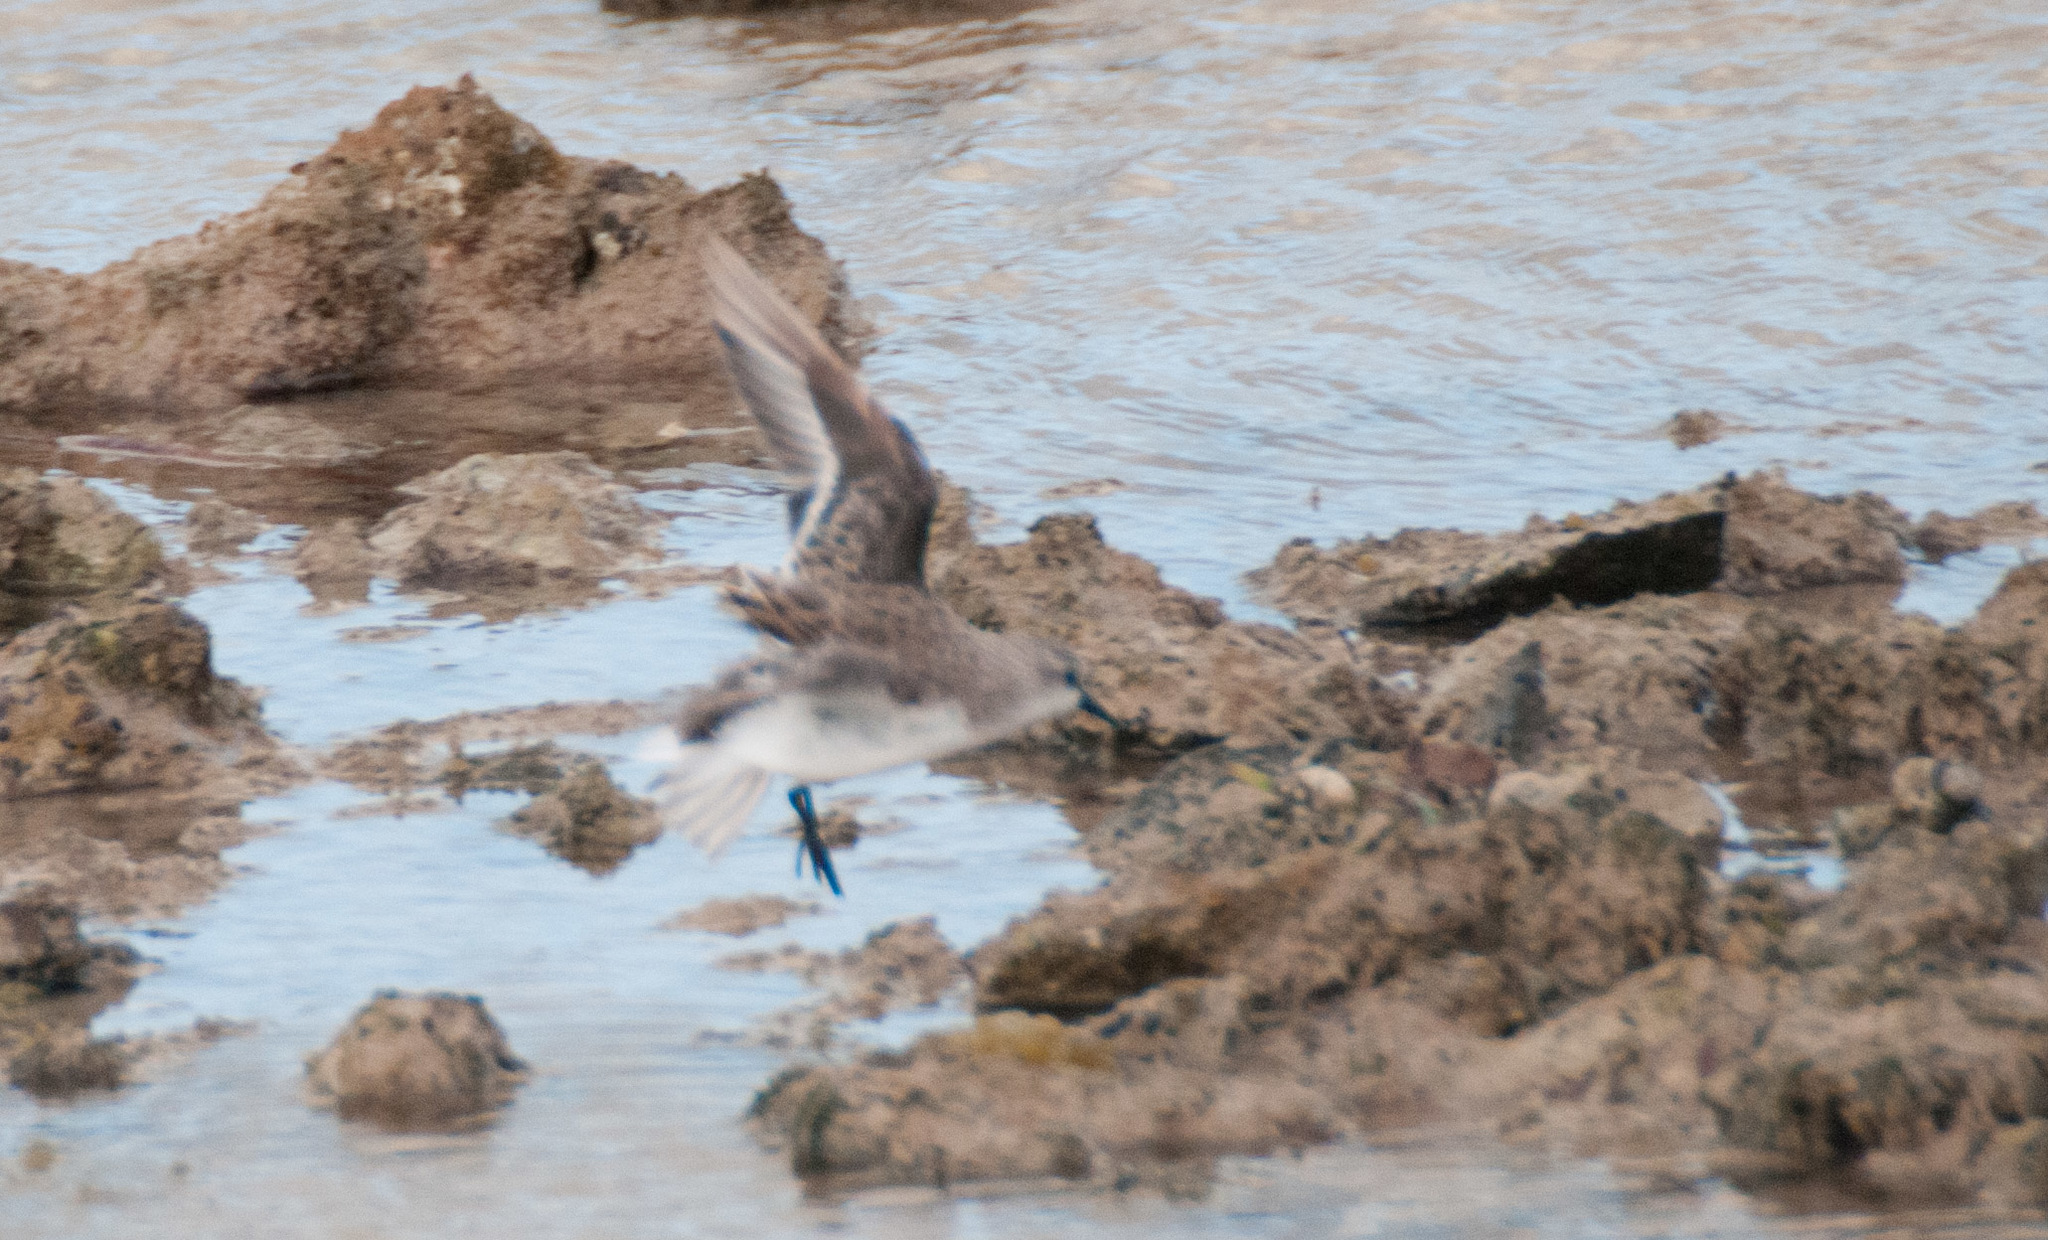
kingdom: Animalia
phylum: Chordata
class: Aves
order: Charadriiformes
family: Scolopacidae
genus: Calidris
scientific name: Calidris ruficollis
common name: Red-necked stint
